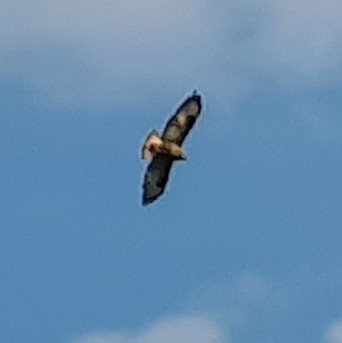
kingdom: Animalia
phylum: Chordata
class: Aves
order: Accipitriformes
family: Accipitridae
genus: Buteo
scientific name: Buteo buteo
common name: Common buzzard
